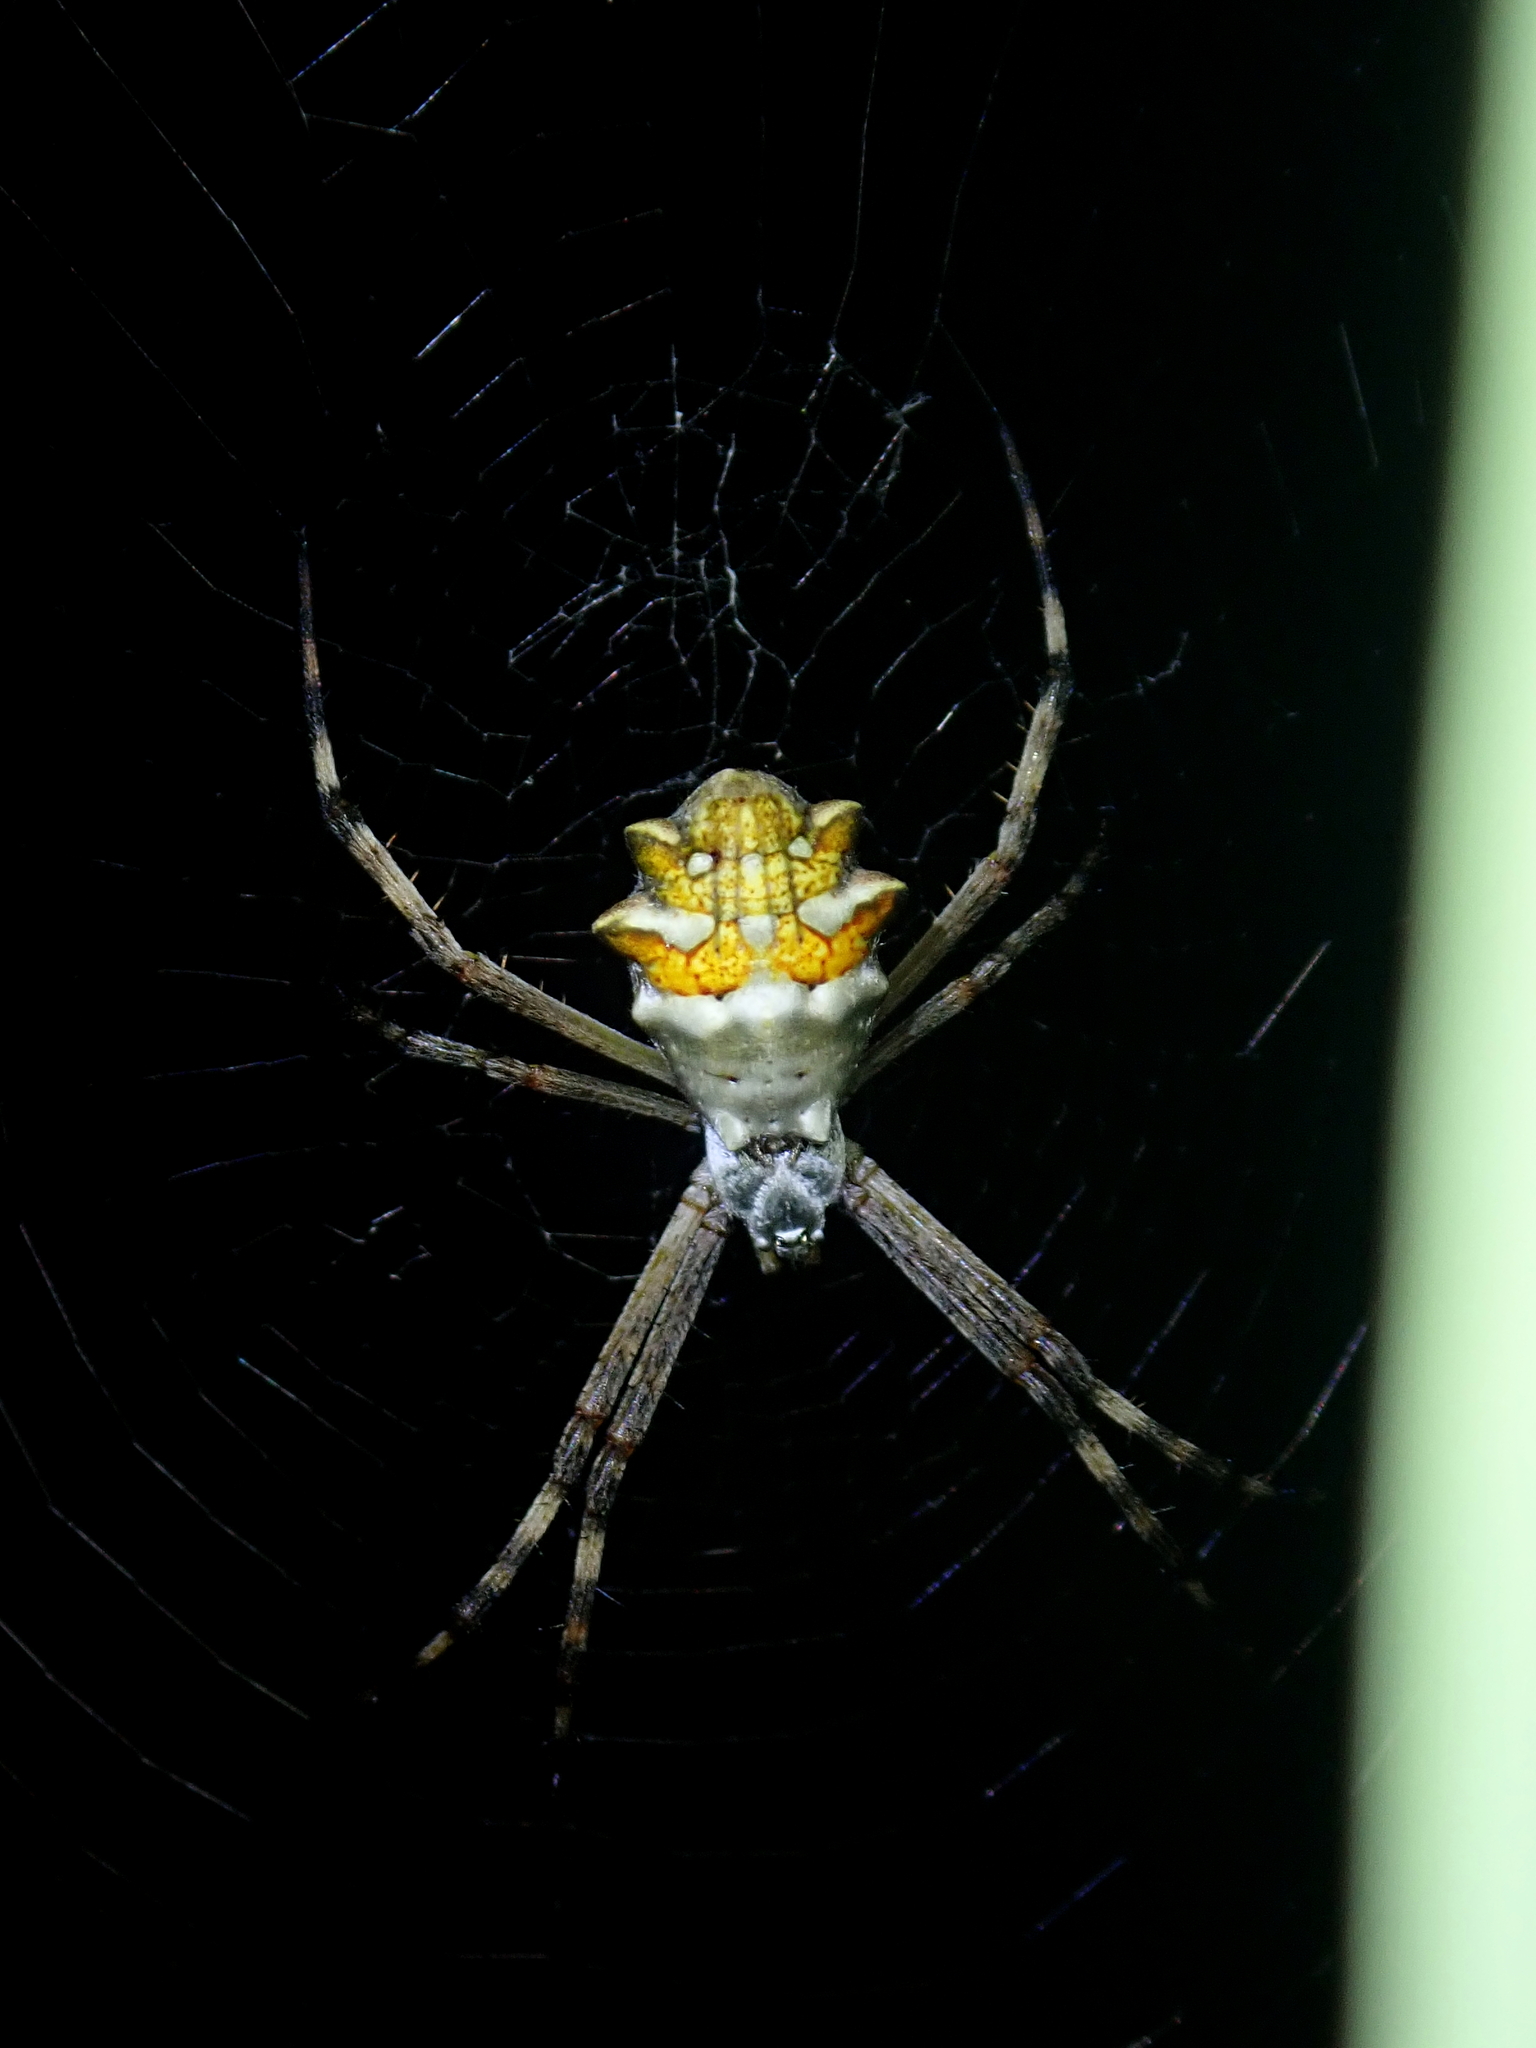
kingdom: Animalia
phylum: Arthropoda
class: Arachnida
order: Araneae
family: Araneidae
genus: Argiope
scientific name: Argiope argentata
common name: Orb weavers
